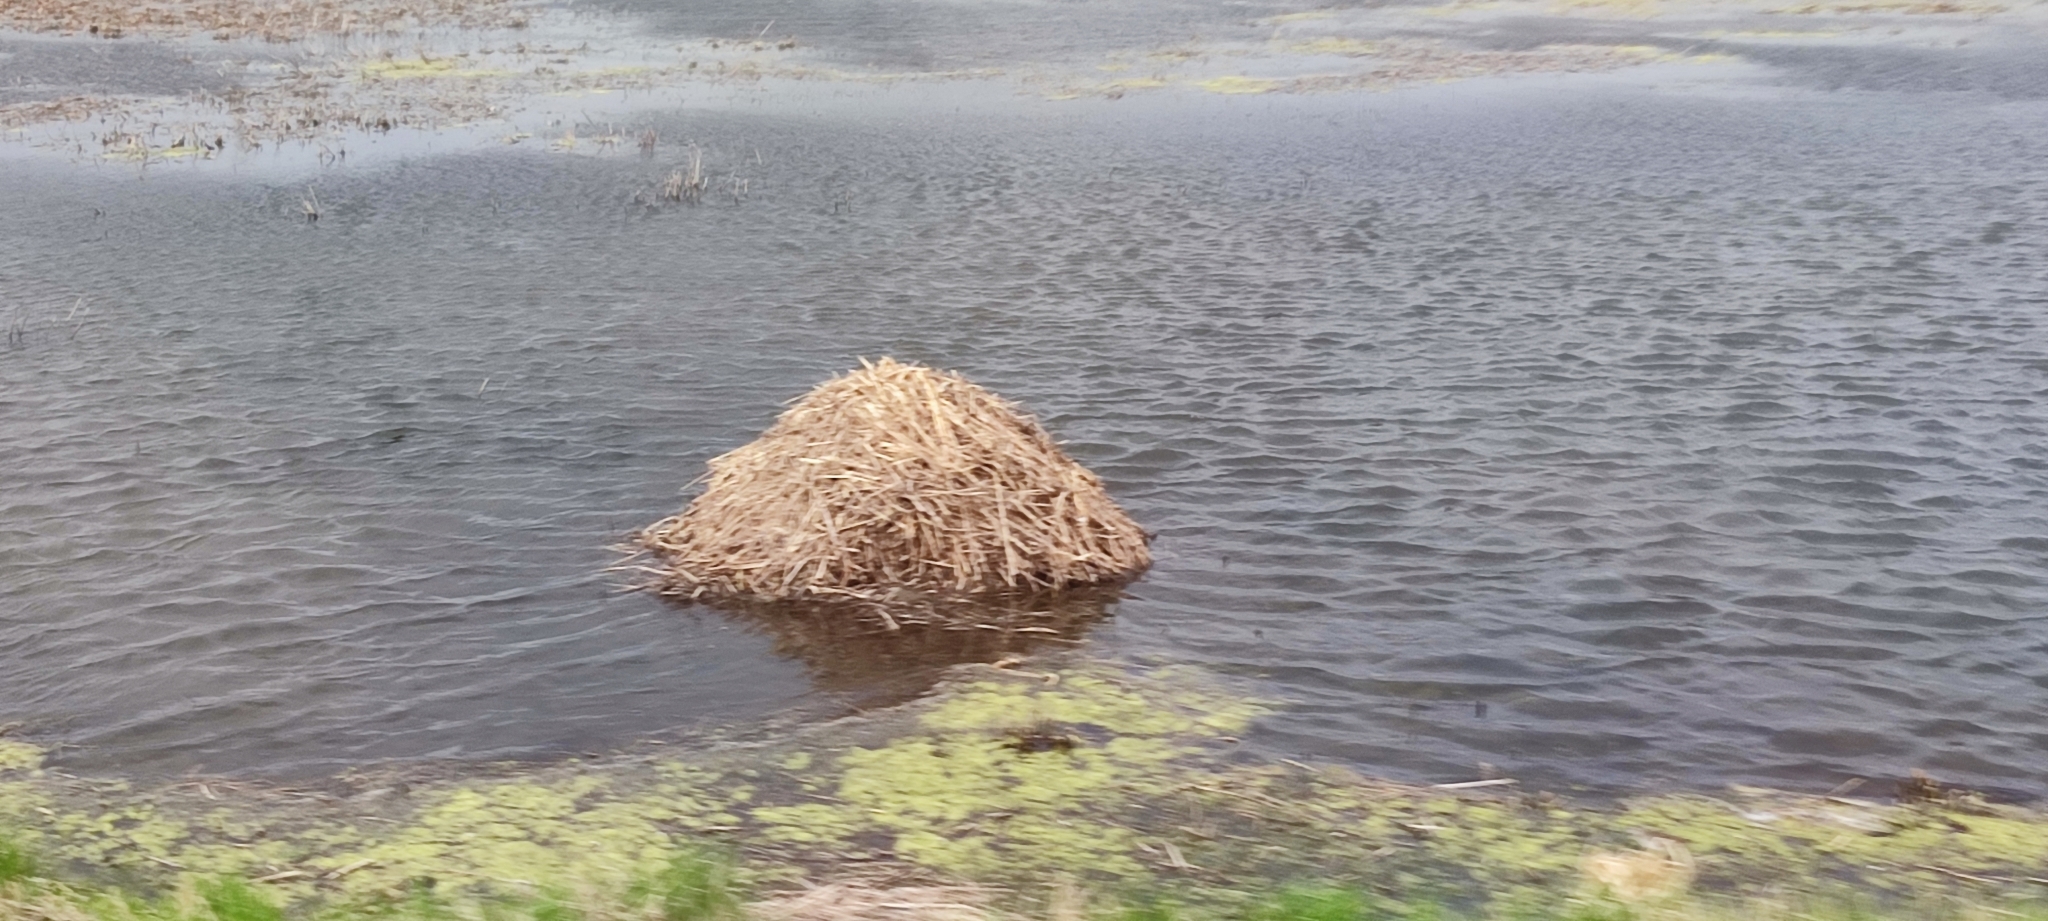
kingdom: Animalia
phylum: Chordata
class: Mammalia
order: Rodentia
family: Cricetidae
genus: Ondatra
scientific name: Ondatra zibethicus
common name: Muskrat
